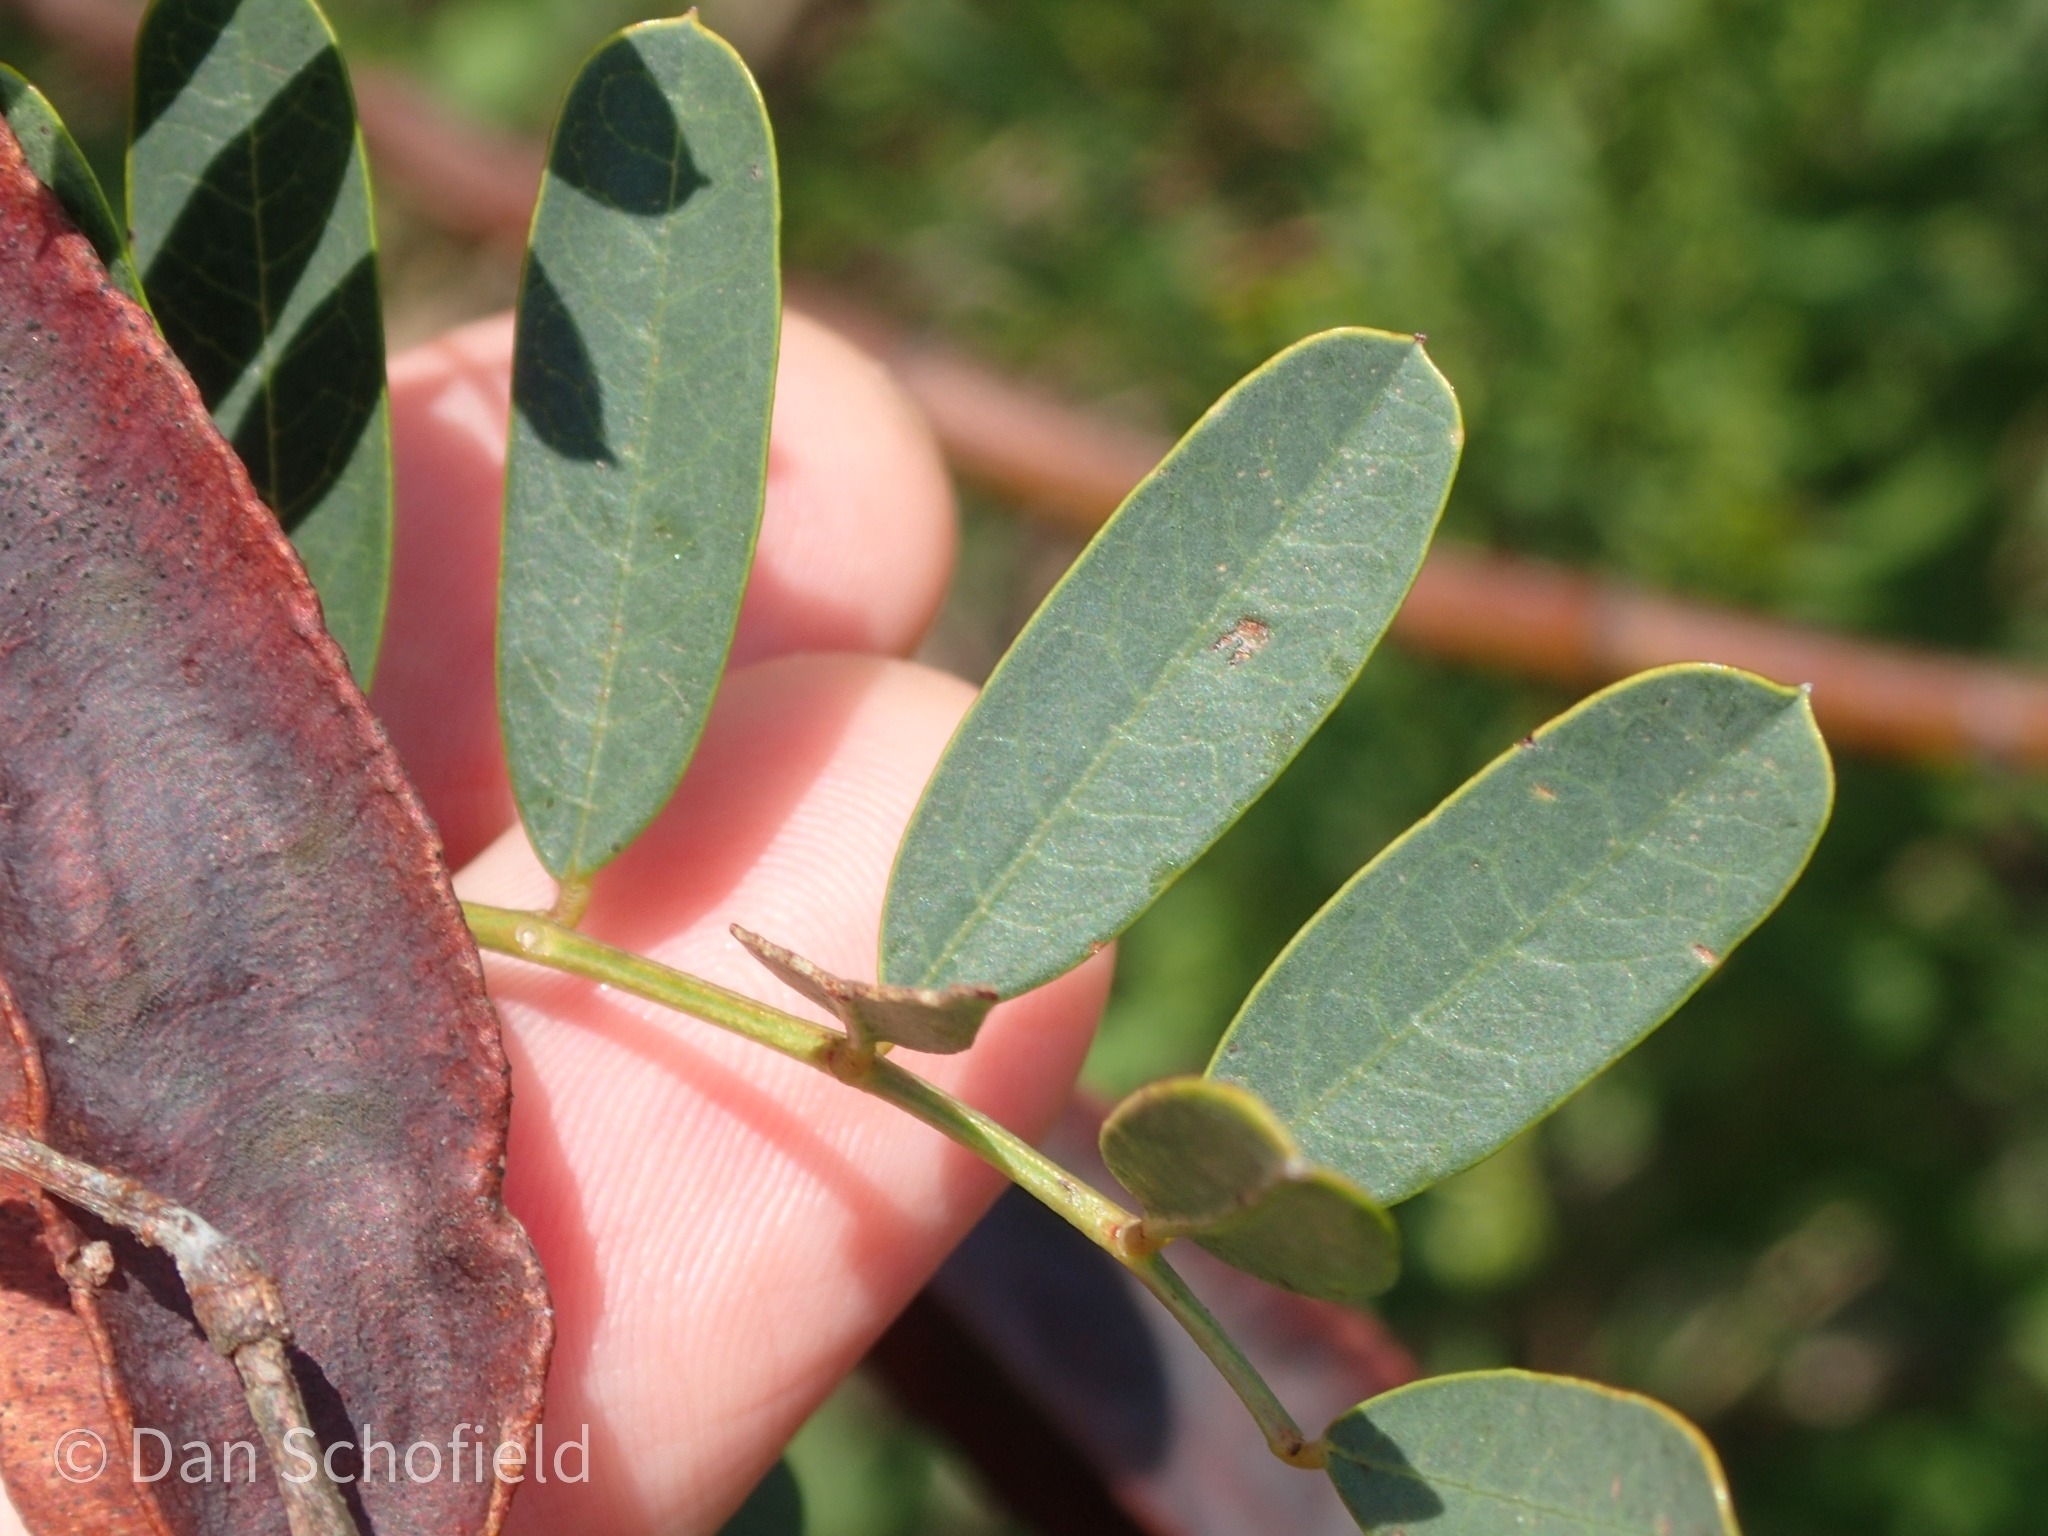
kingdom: Plantae
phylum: Tracheophyta
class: Magnoliopsida
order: Fabales
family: Fabaceae
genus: Sesbania
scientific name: Sesbania punicea
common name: Rattlebox
